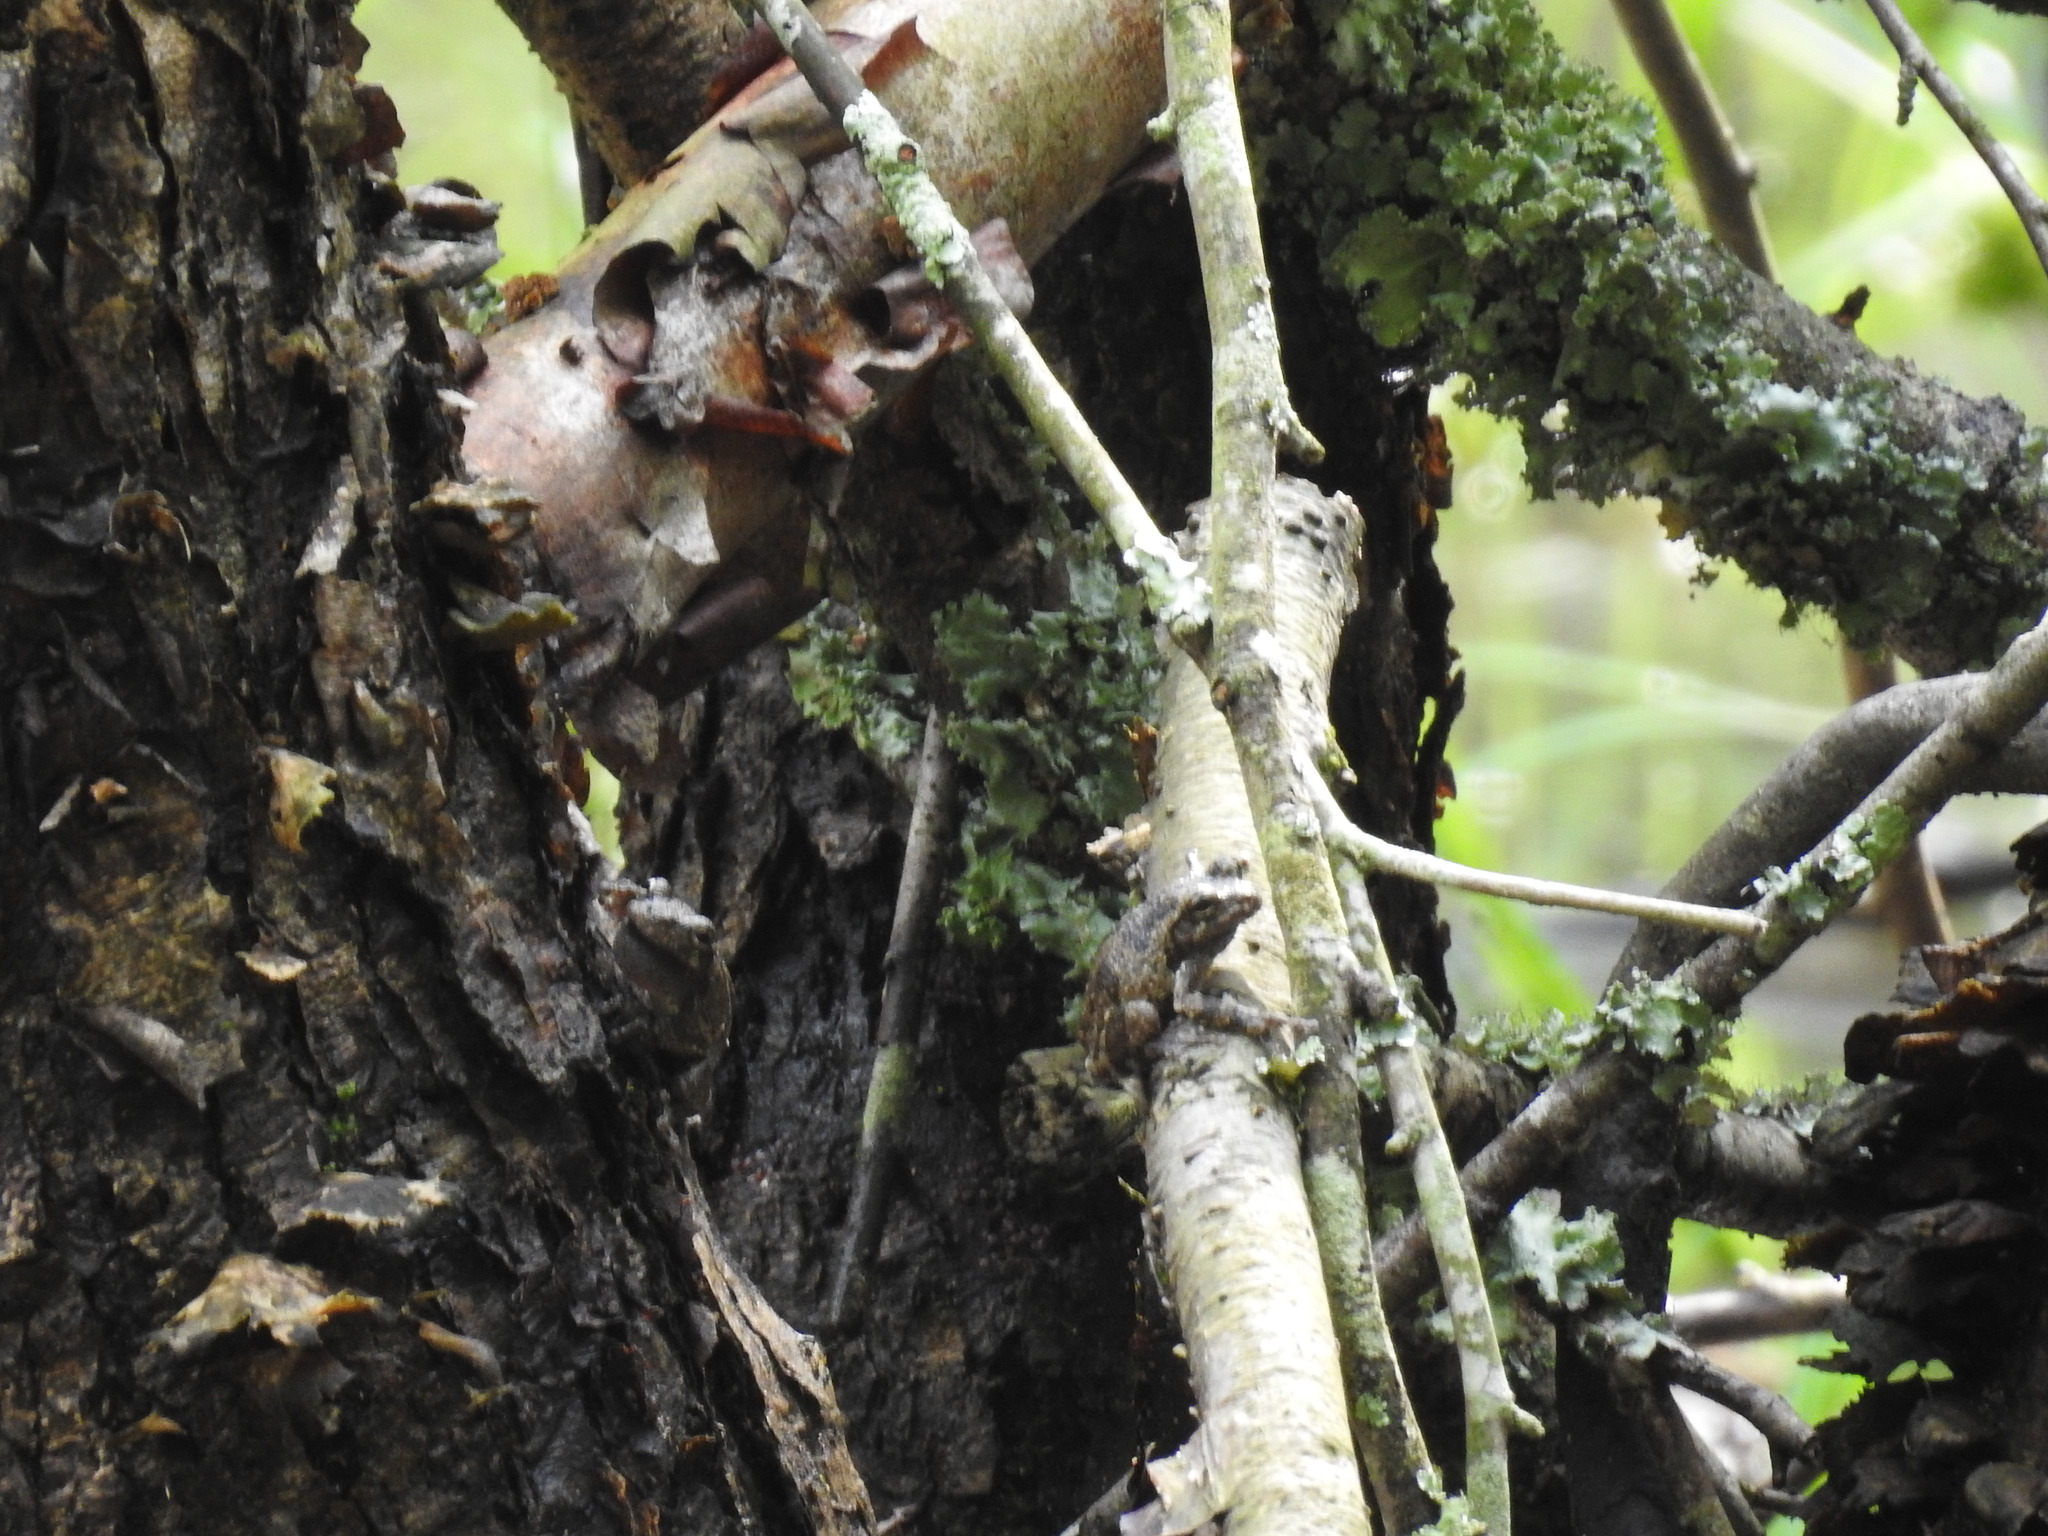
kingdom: Animalia
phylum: Chordata
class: Amphibia
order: Anura
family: Hylidae
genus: Hyla
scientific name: Hyla
